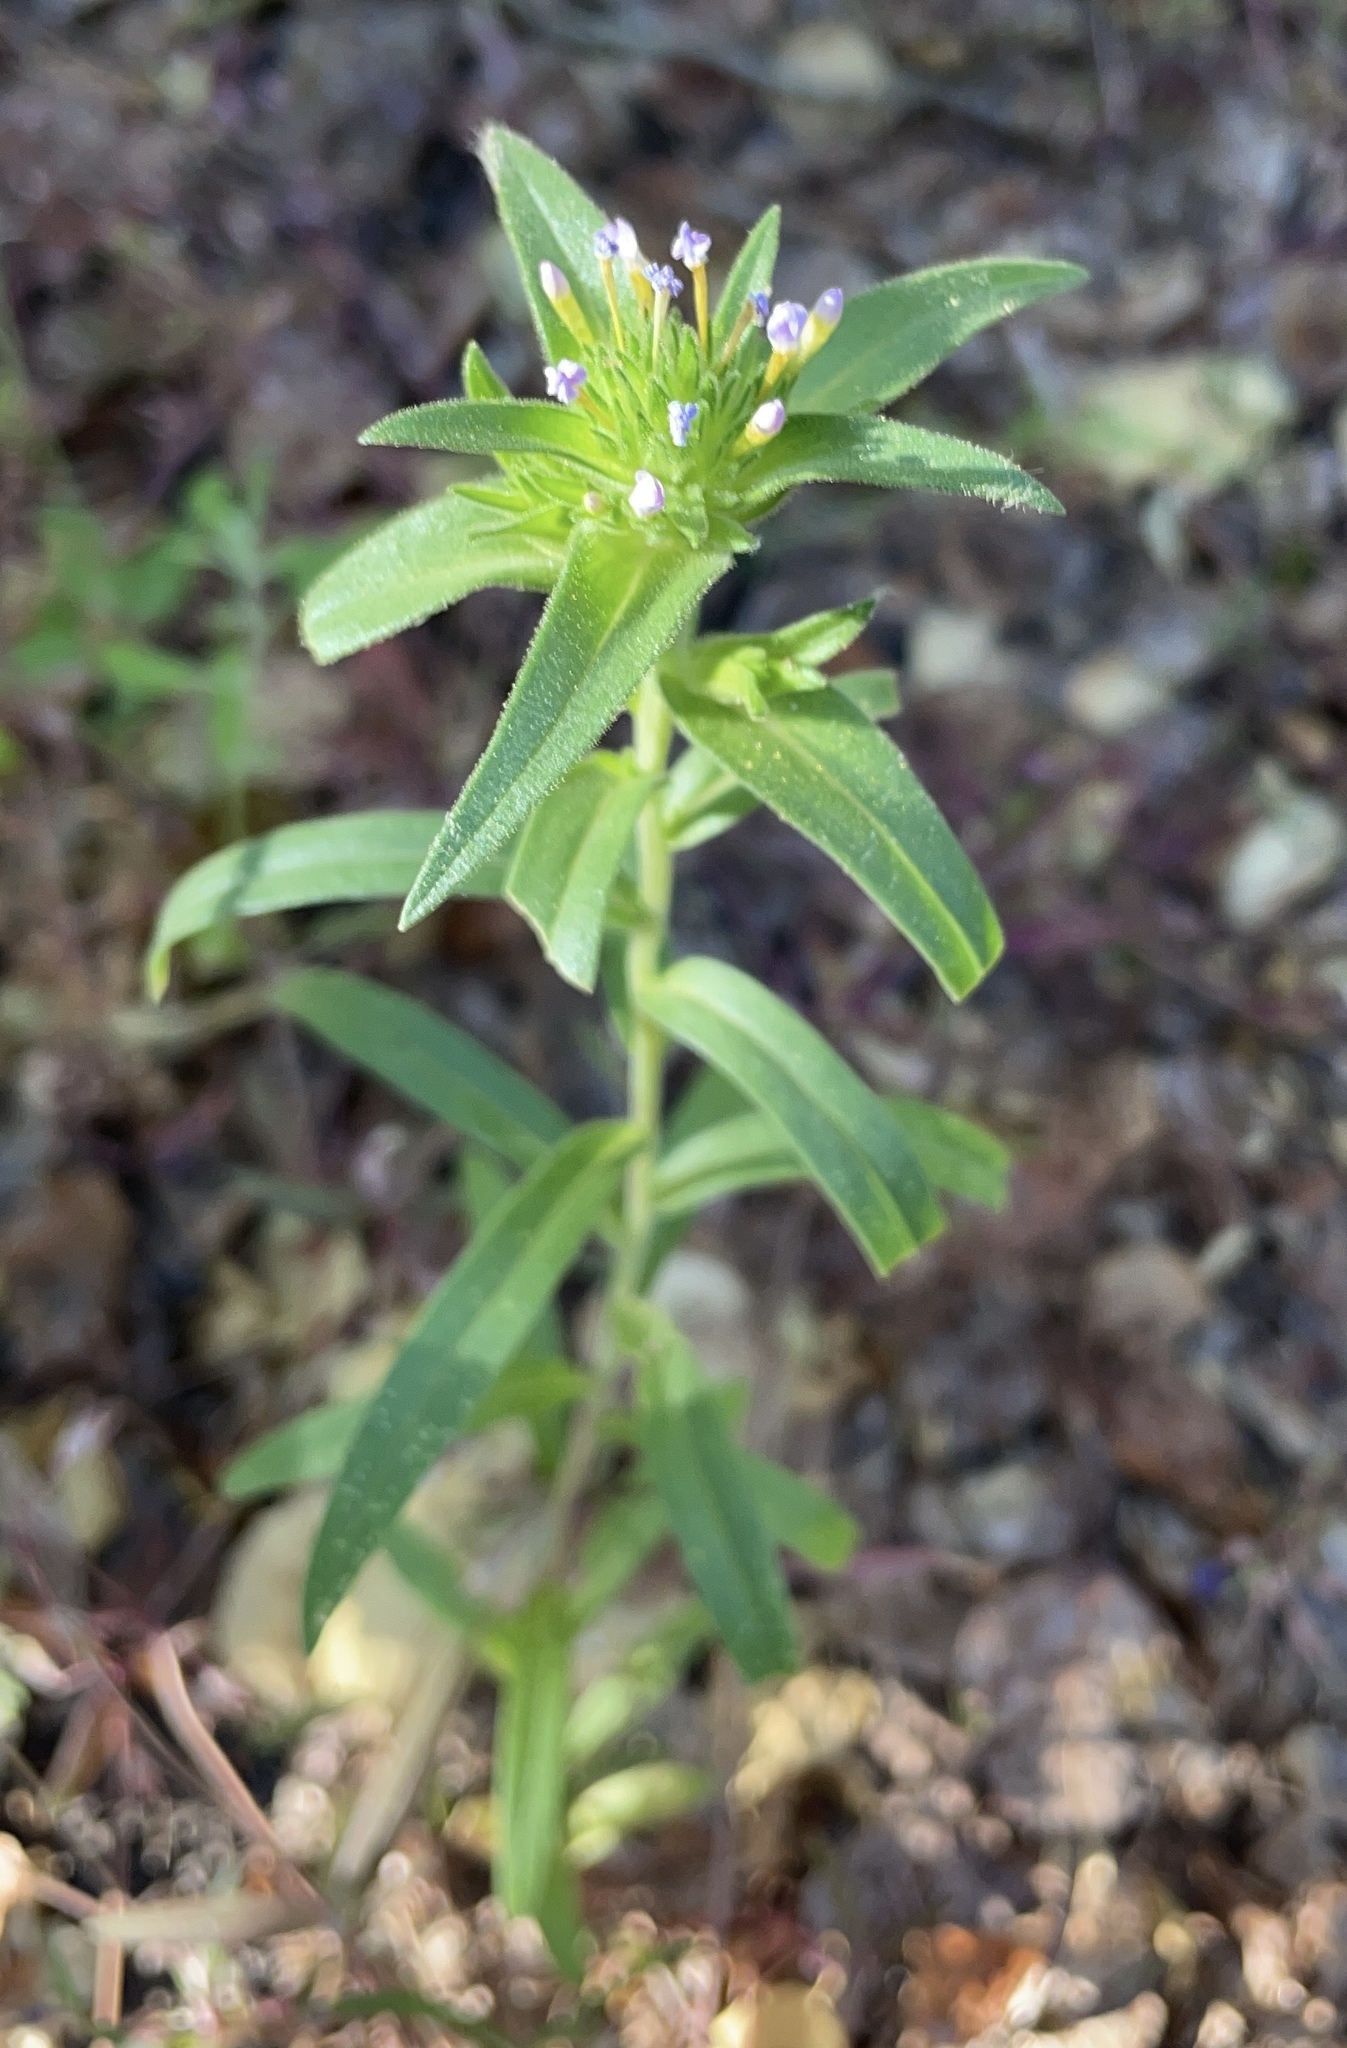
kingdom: Plantae
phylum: Tracheophyta
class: Magnoliopsida
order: Ericales
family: Polemoniaceae
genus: Collomia
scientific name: Collomia linearis
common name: Tiny trumpet
